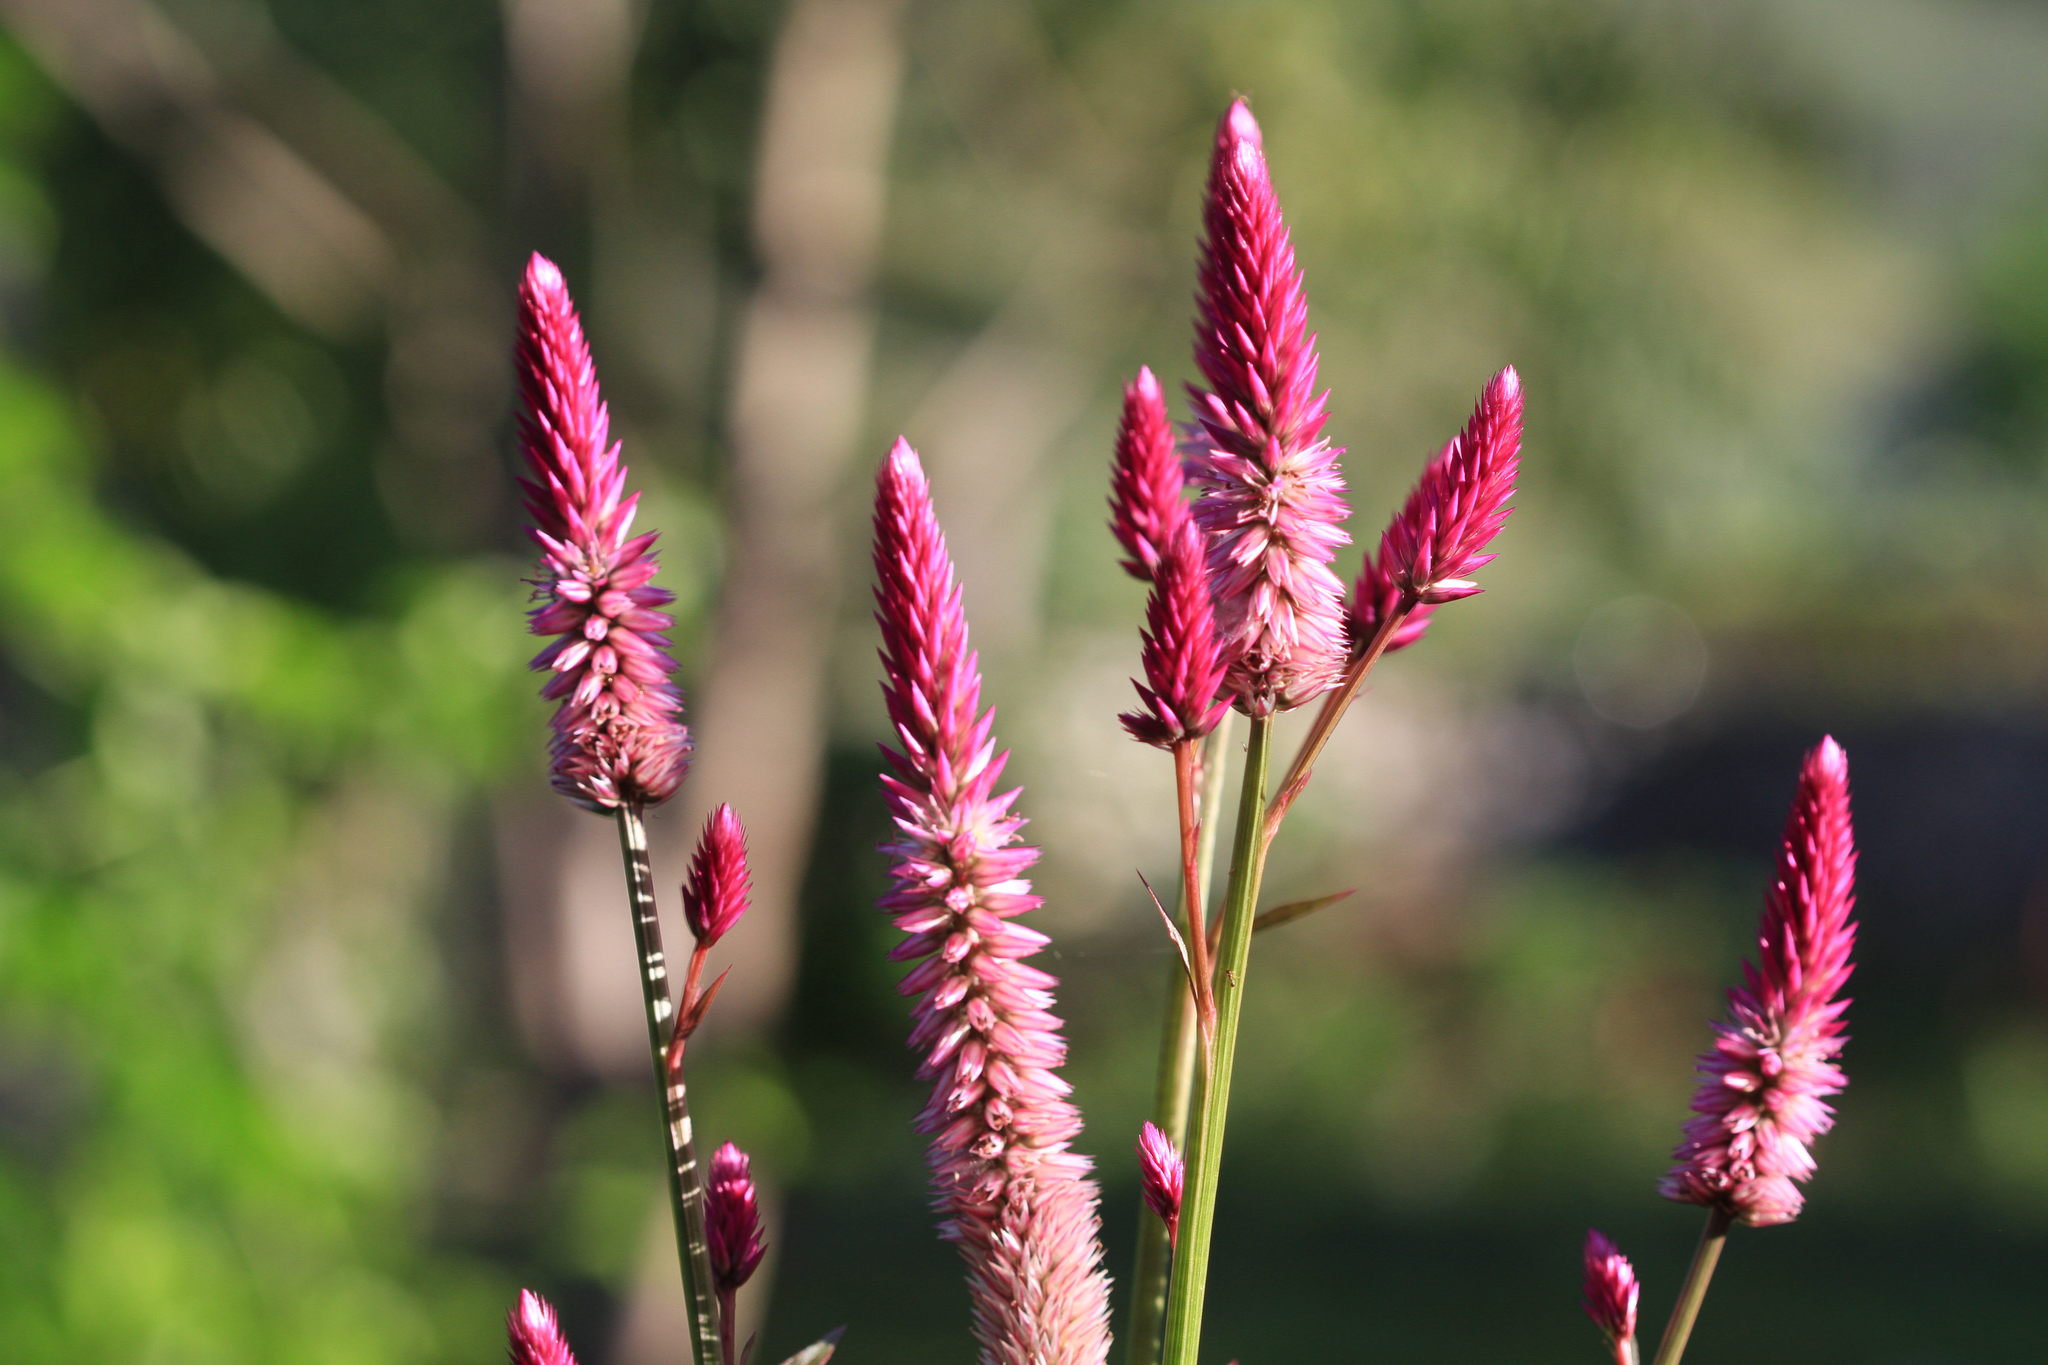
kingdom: Plantae
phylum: Tracheophyta
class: Magnoliopsida
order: Caryophyllales
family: Amaranthaceae
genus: Celosia
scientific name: Celosia argentea
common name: Feather cockscomb
